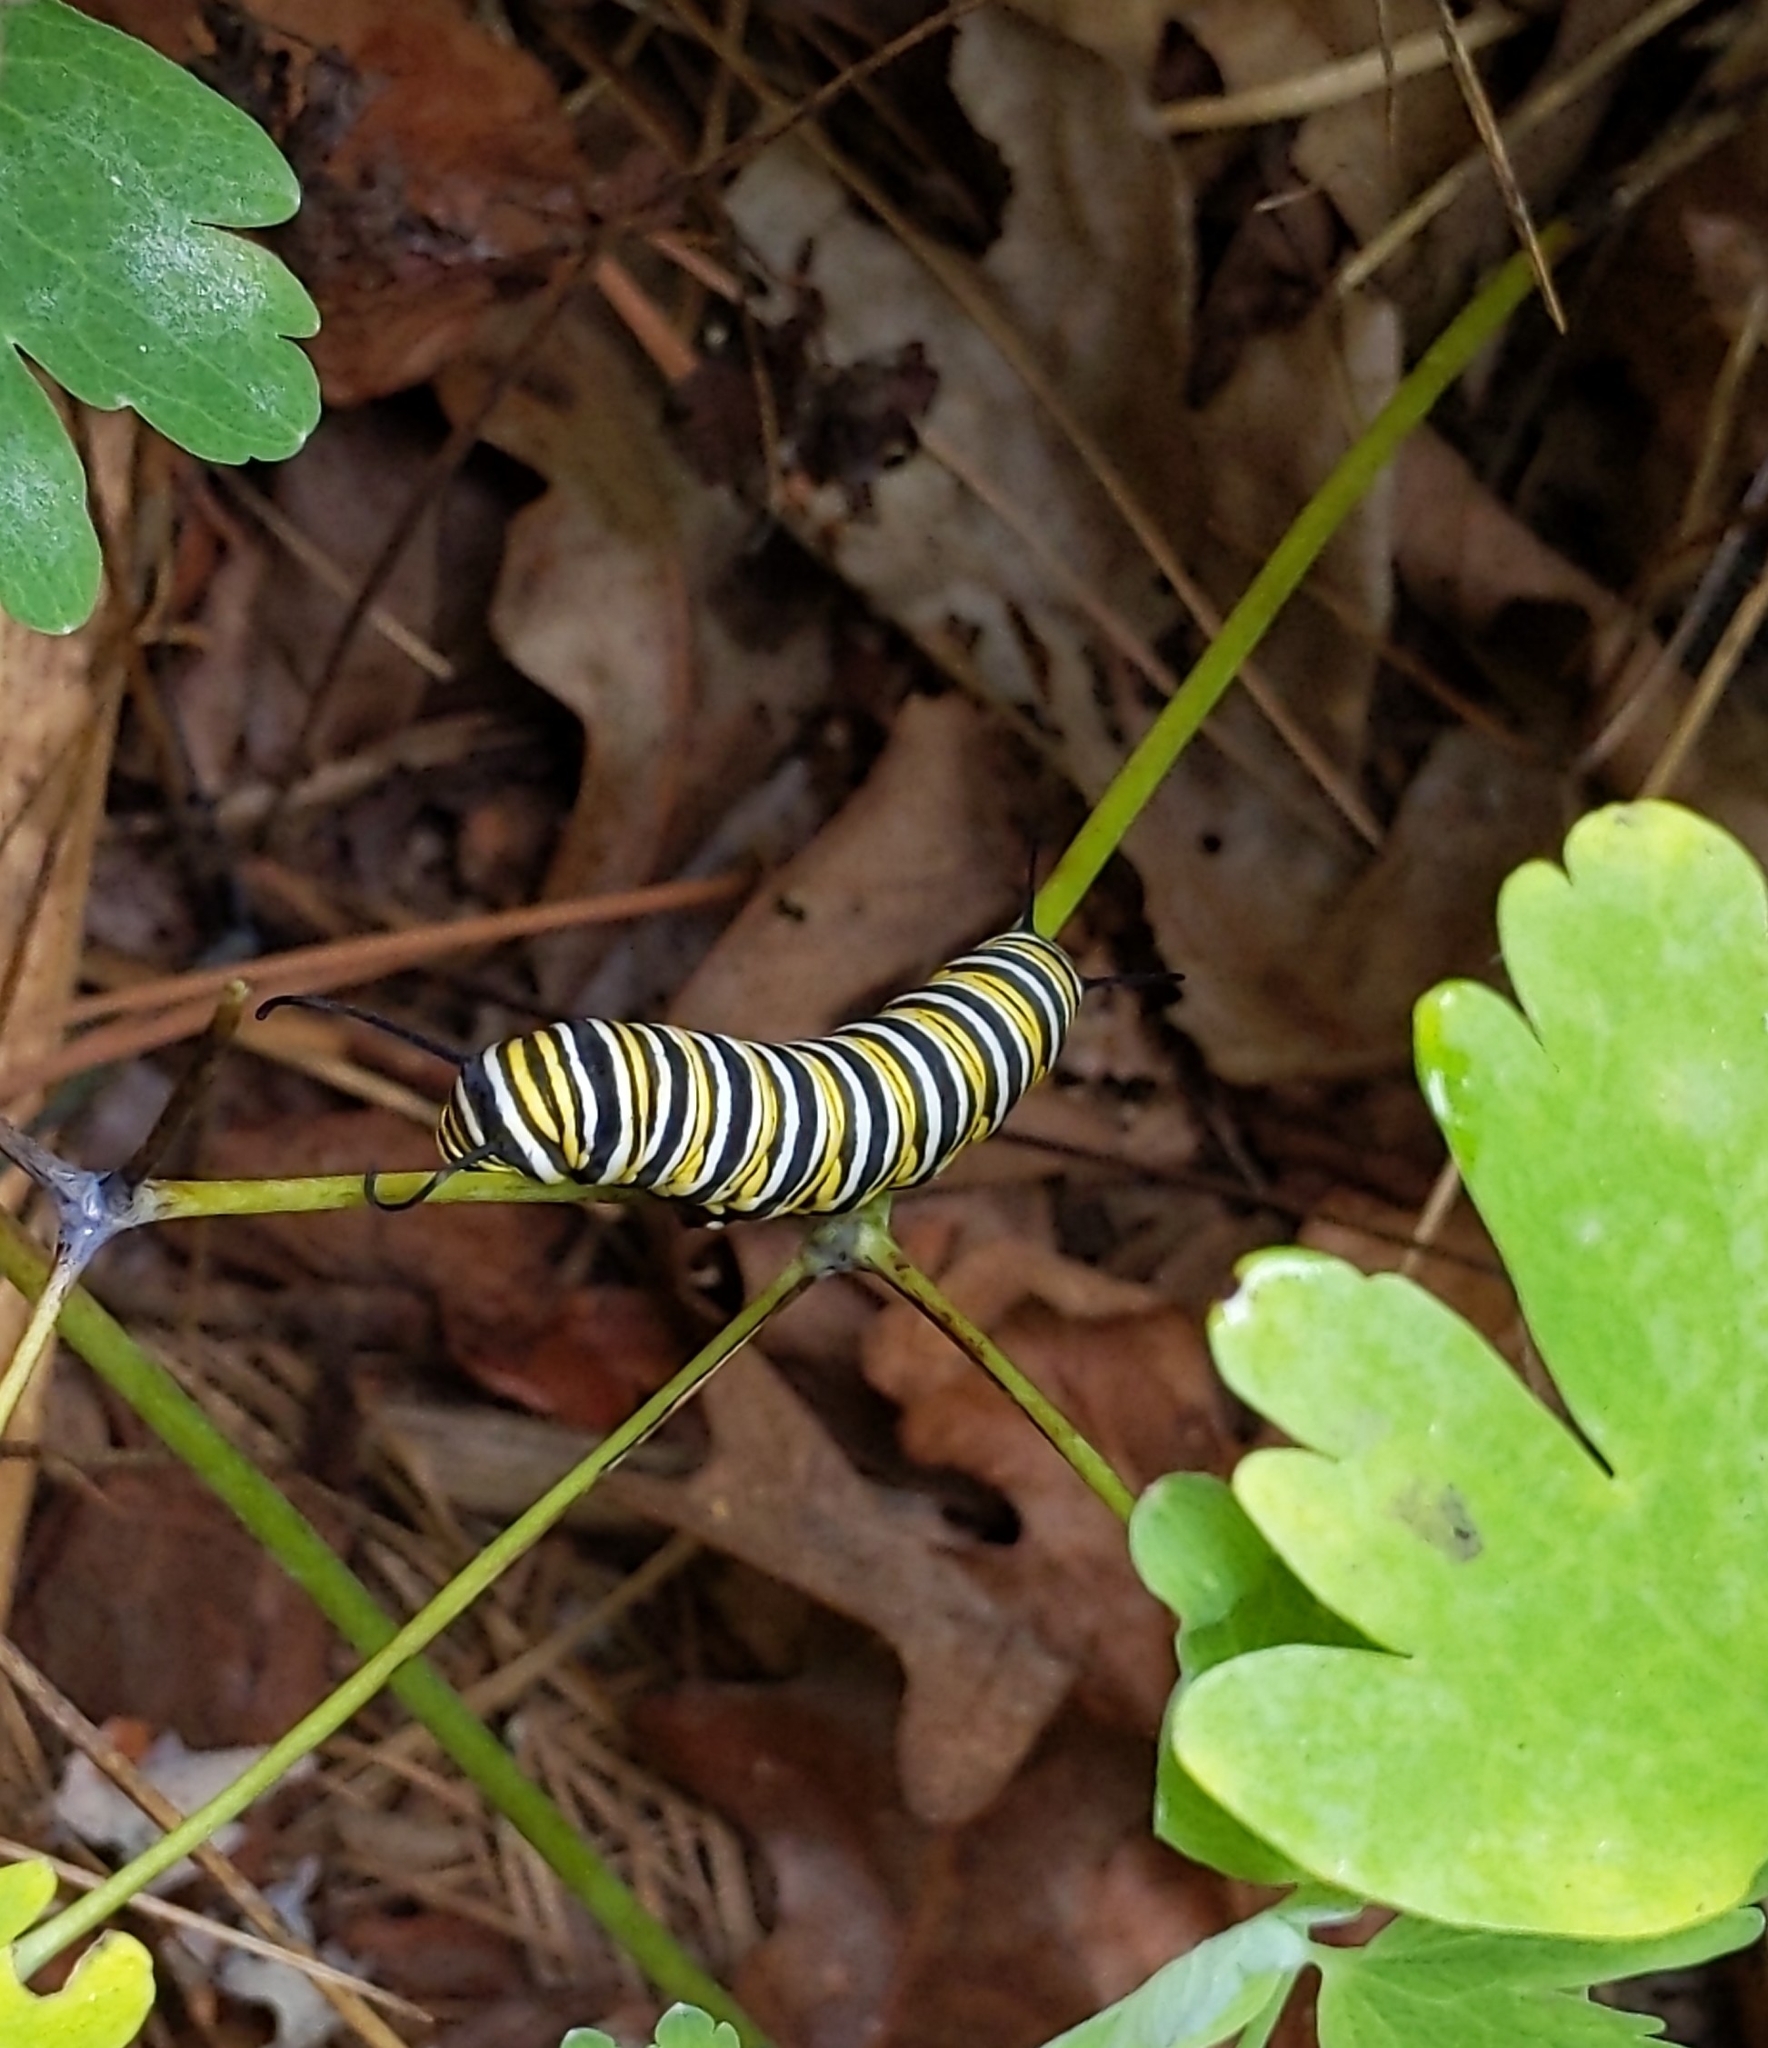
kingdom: Animalia
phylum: Arthropoda
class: Insecta
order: Lepidoptera
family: Nymphalidae
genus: Danaus
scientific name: Danaus plexippus
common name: Monarch
